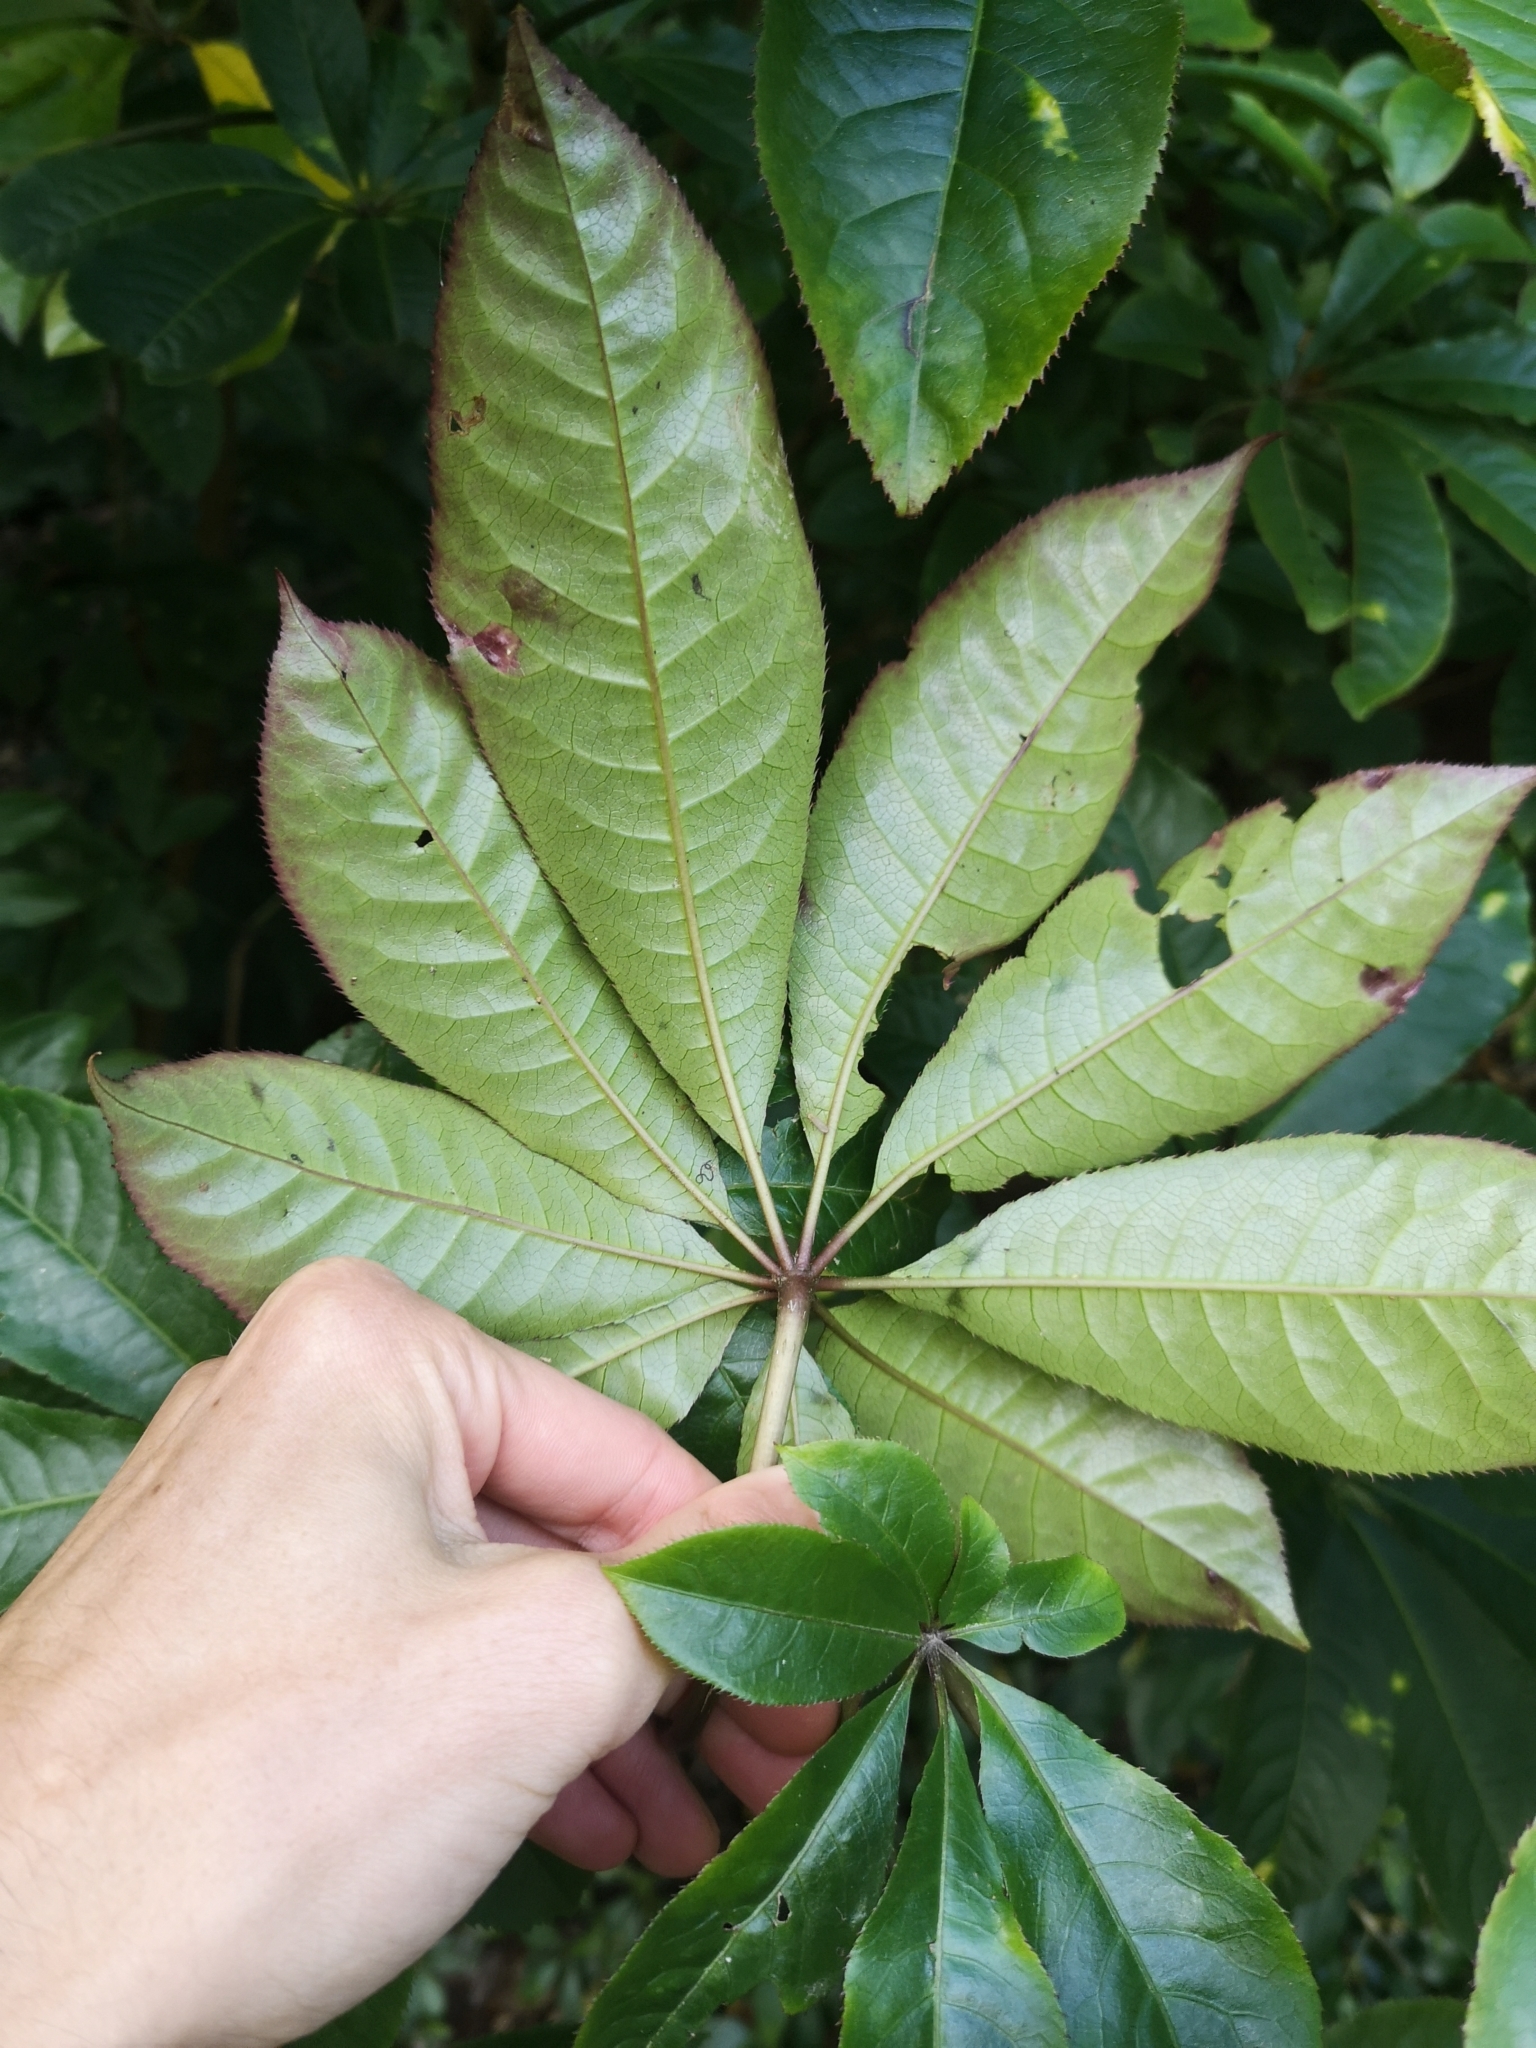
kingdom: Plantae
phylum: Tracheophyta
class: Magnoliopsida
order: Apiales
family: Araliaceae
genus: Schefflera
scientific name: Schefflera digitata
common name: Pate
